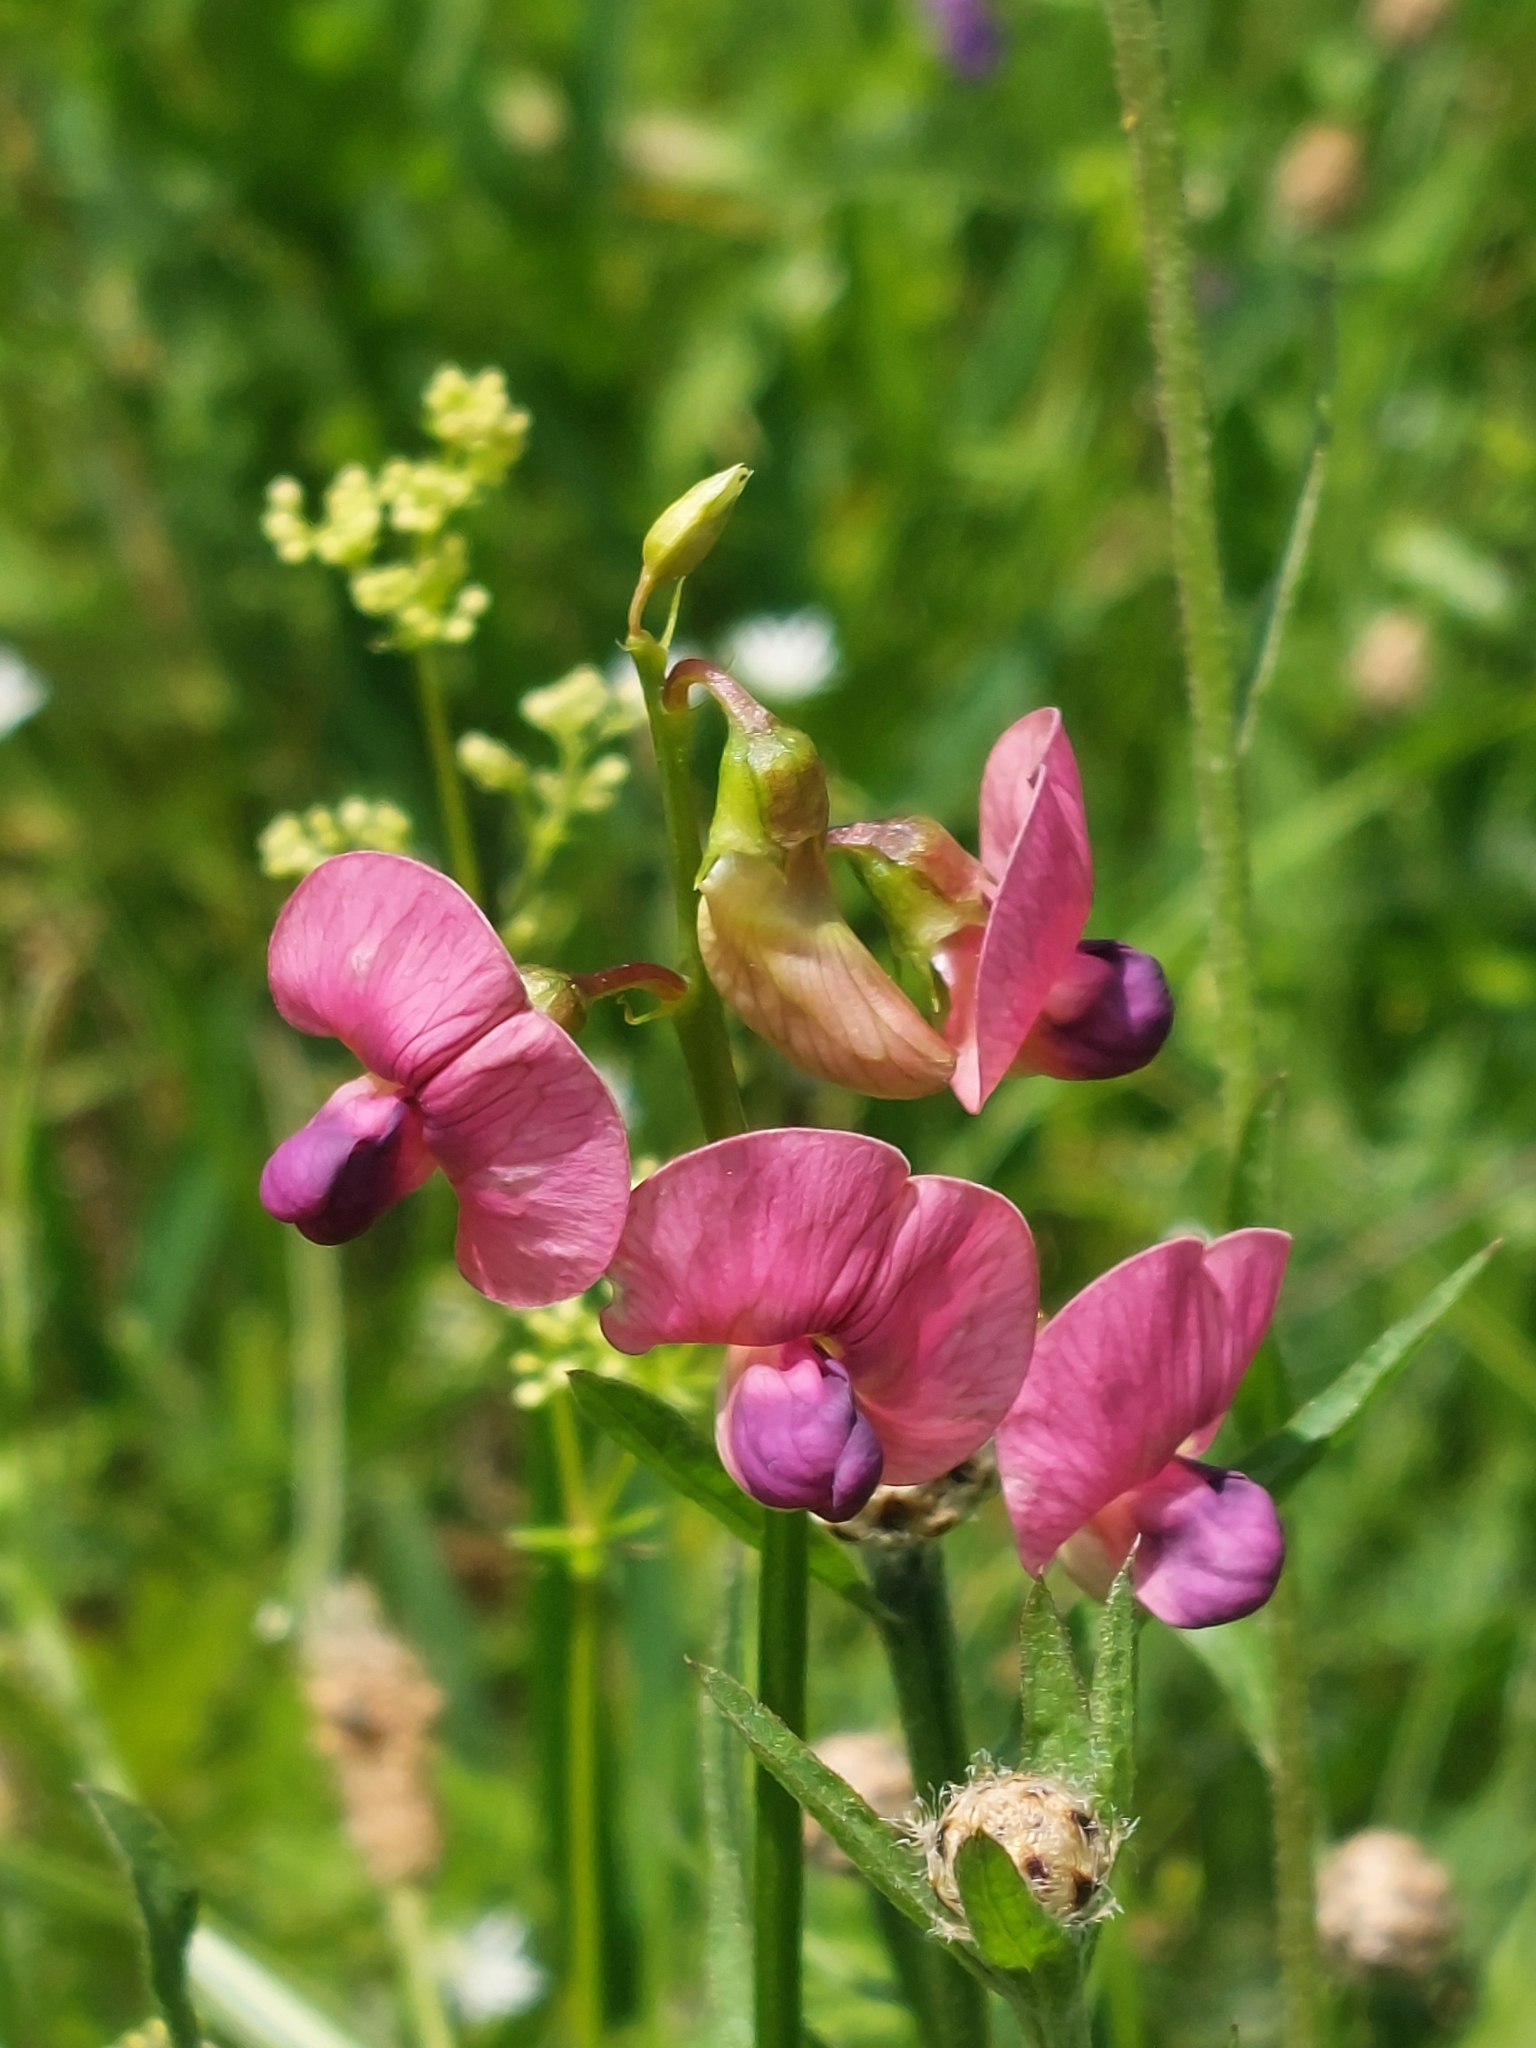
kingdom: Plantae
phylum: Tracheophyta
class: Magnoliopsida
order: Fabales
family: Fabaceae
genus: Lathyrus
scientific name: Lathyrus sylvestris
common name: Flat pea
